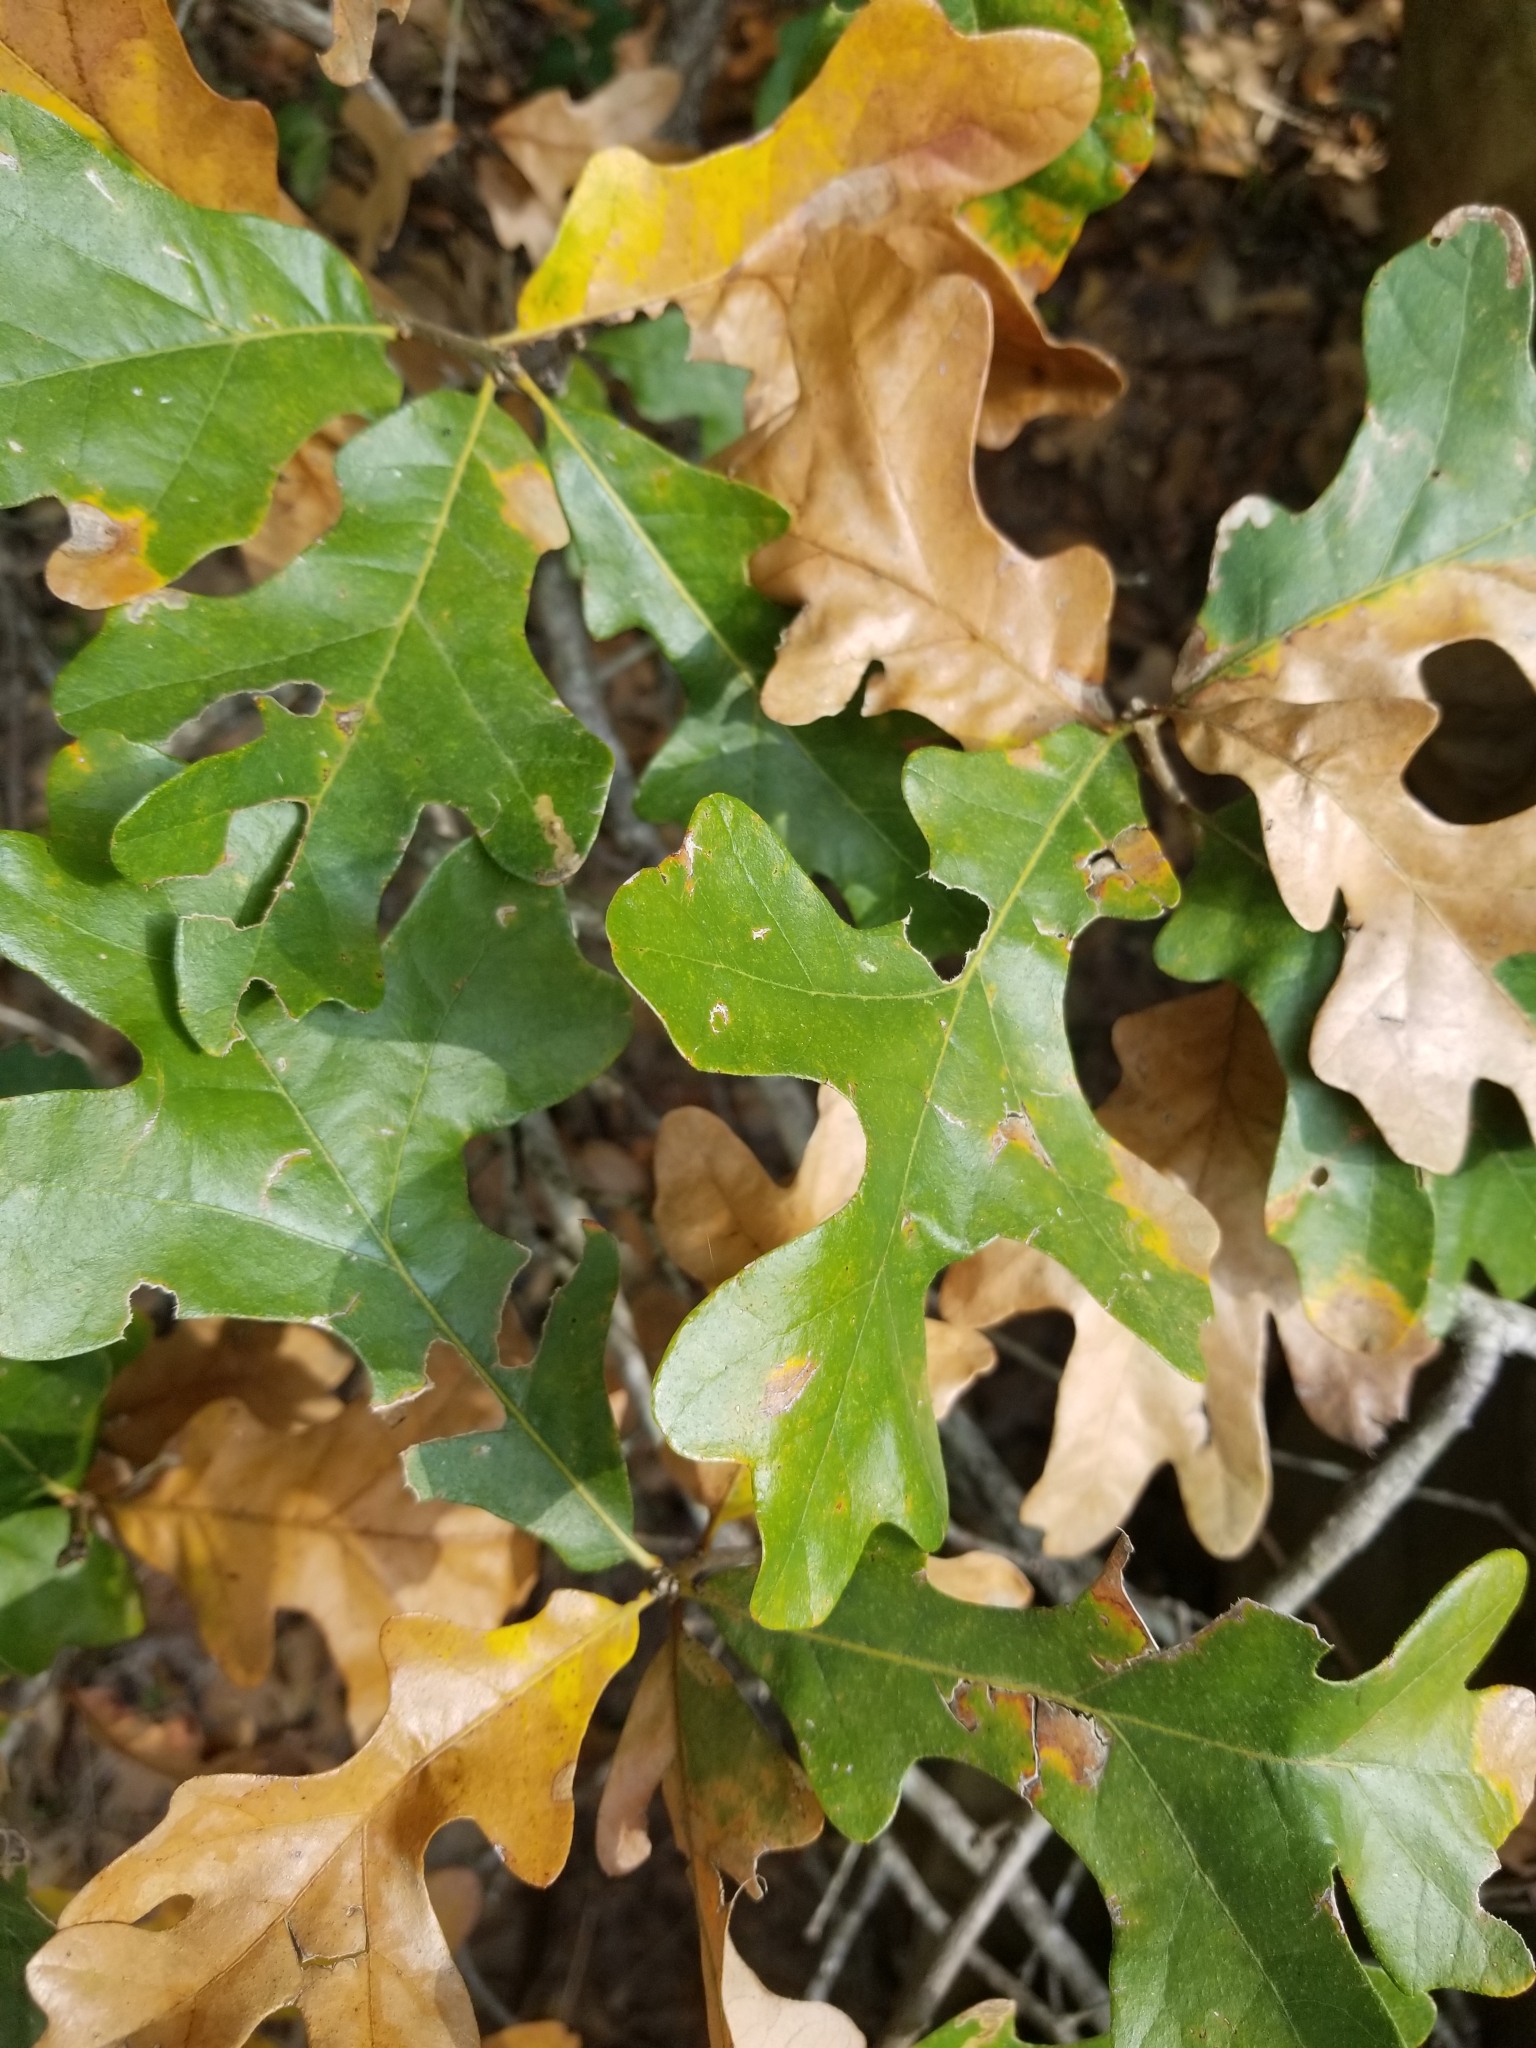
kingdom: Plantae
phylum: Tracheophyta
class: Magnoliopsida
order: Fagales
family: Fagaceae
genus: Quercus
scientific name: Quercus stellata
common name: Post oak
